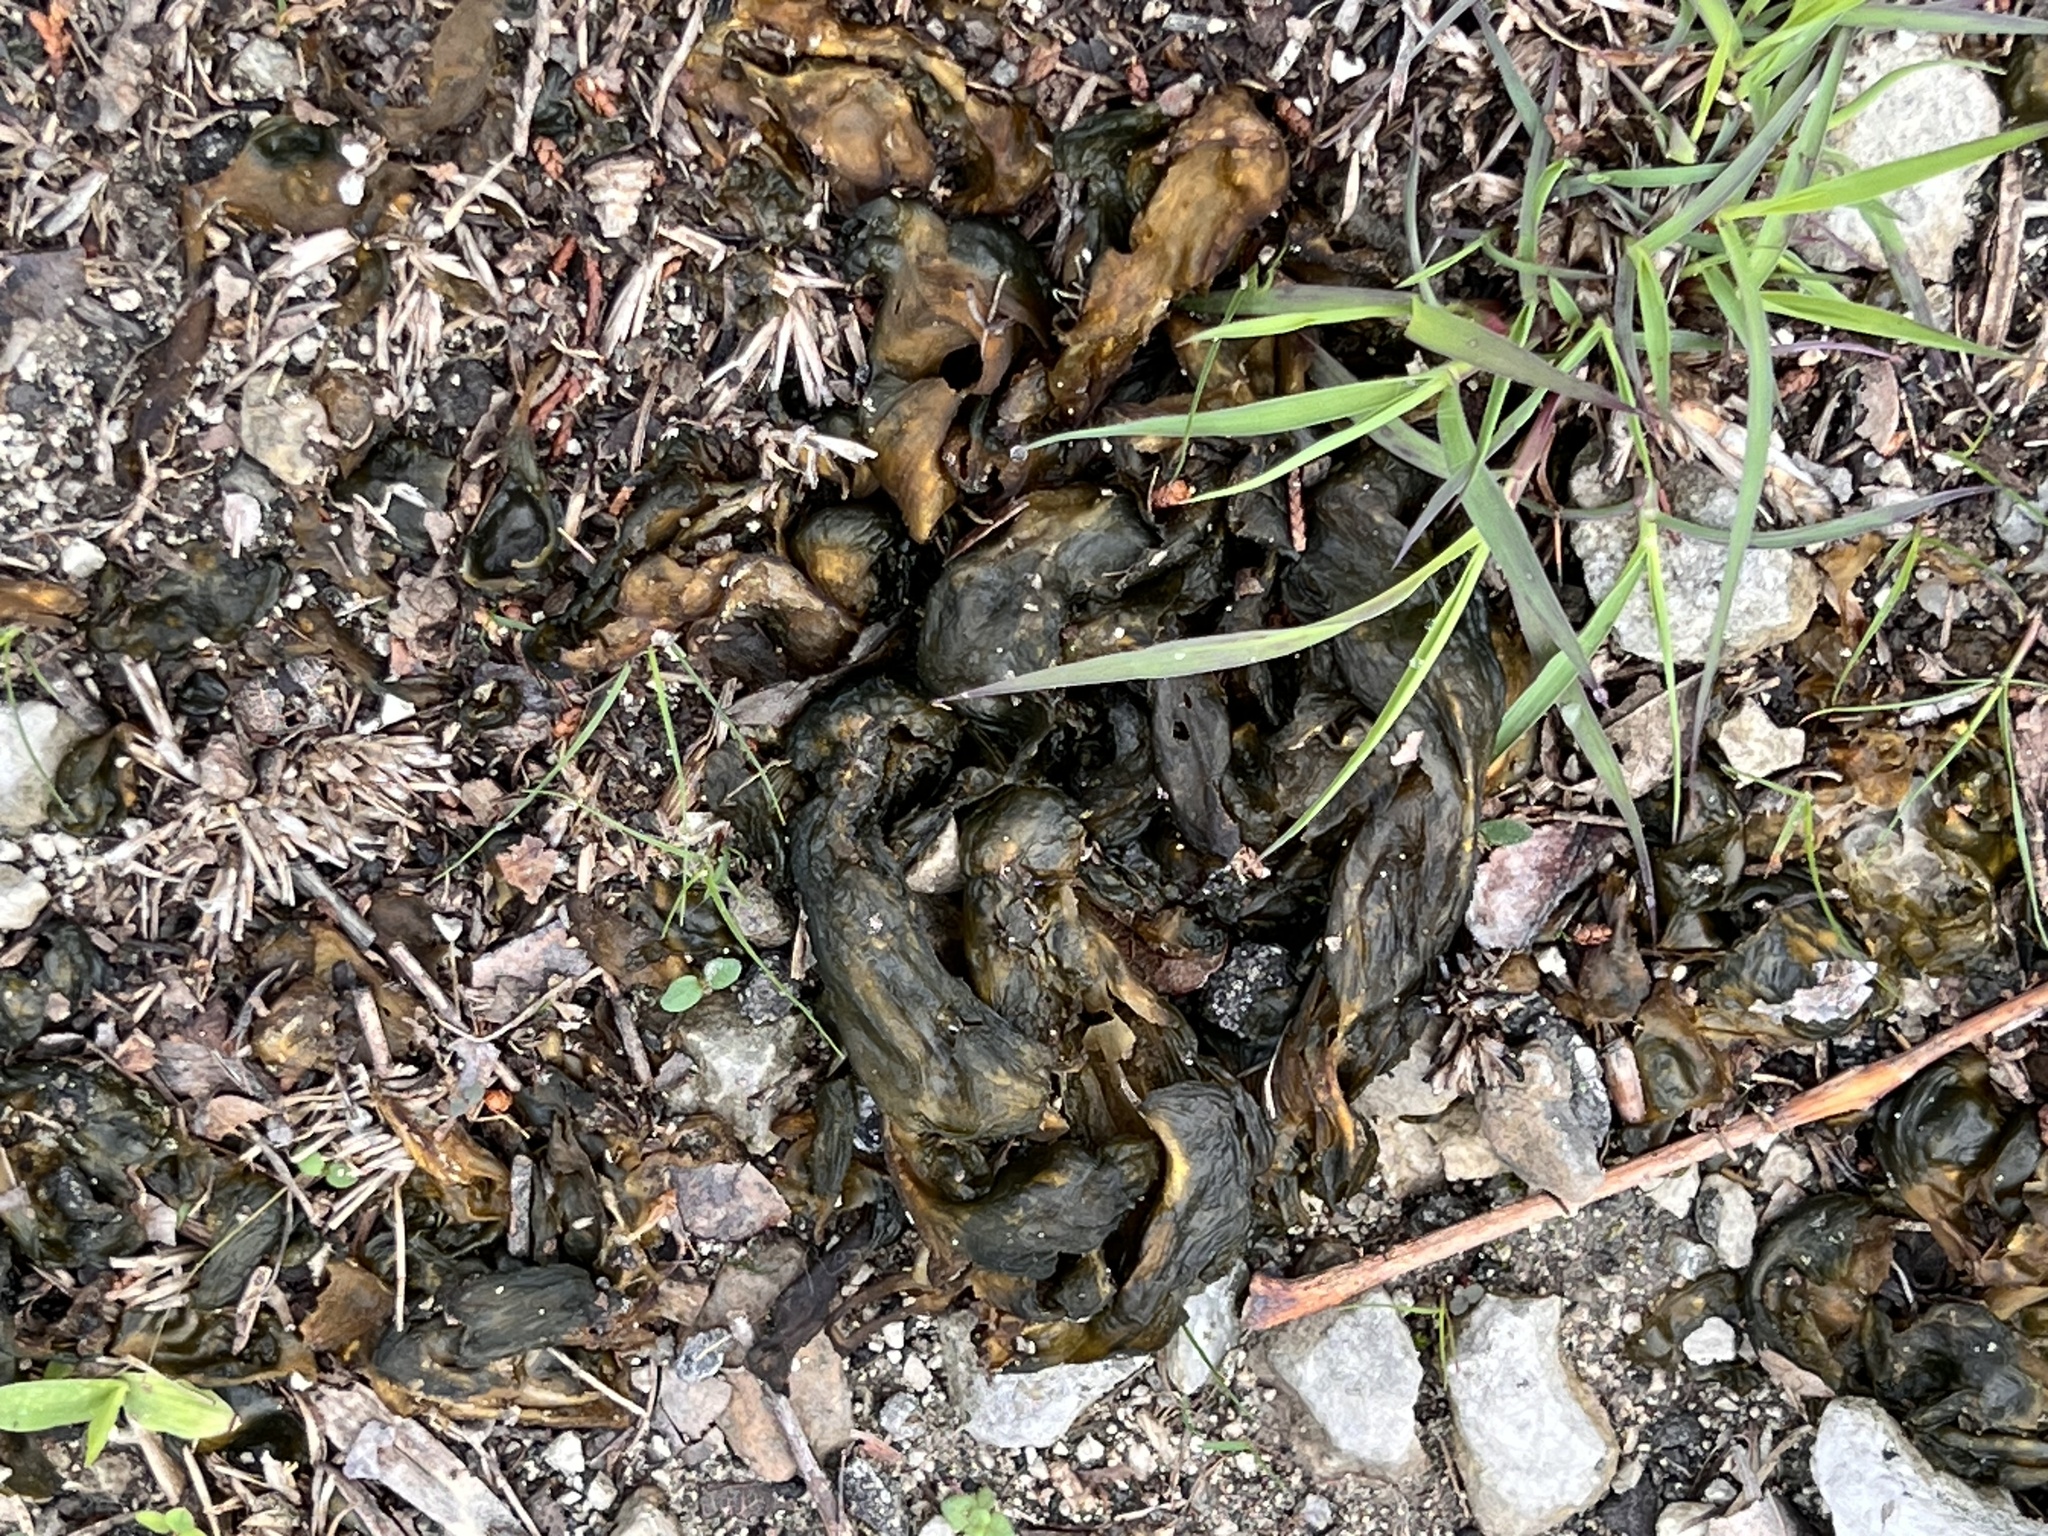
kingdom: Bacteria
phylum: Cyanobacteria
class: Cyanobacteriia
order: Cyanobacteriales
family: Nostocaceae
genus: Nostoc
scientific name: Nostoc commune
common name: Star jelly
